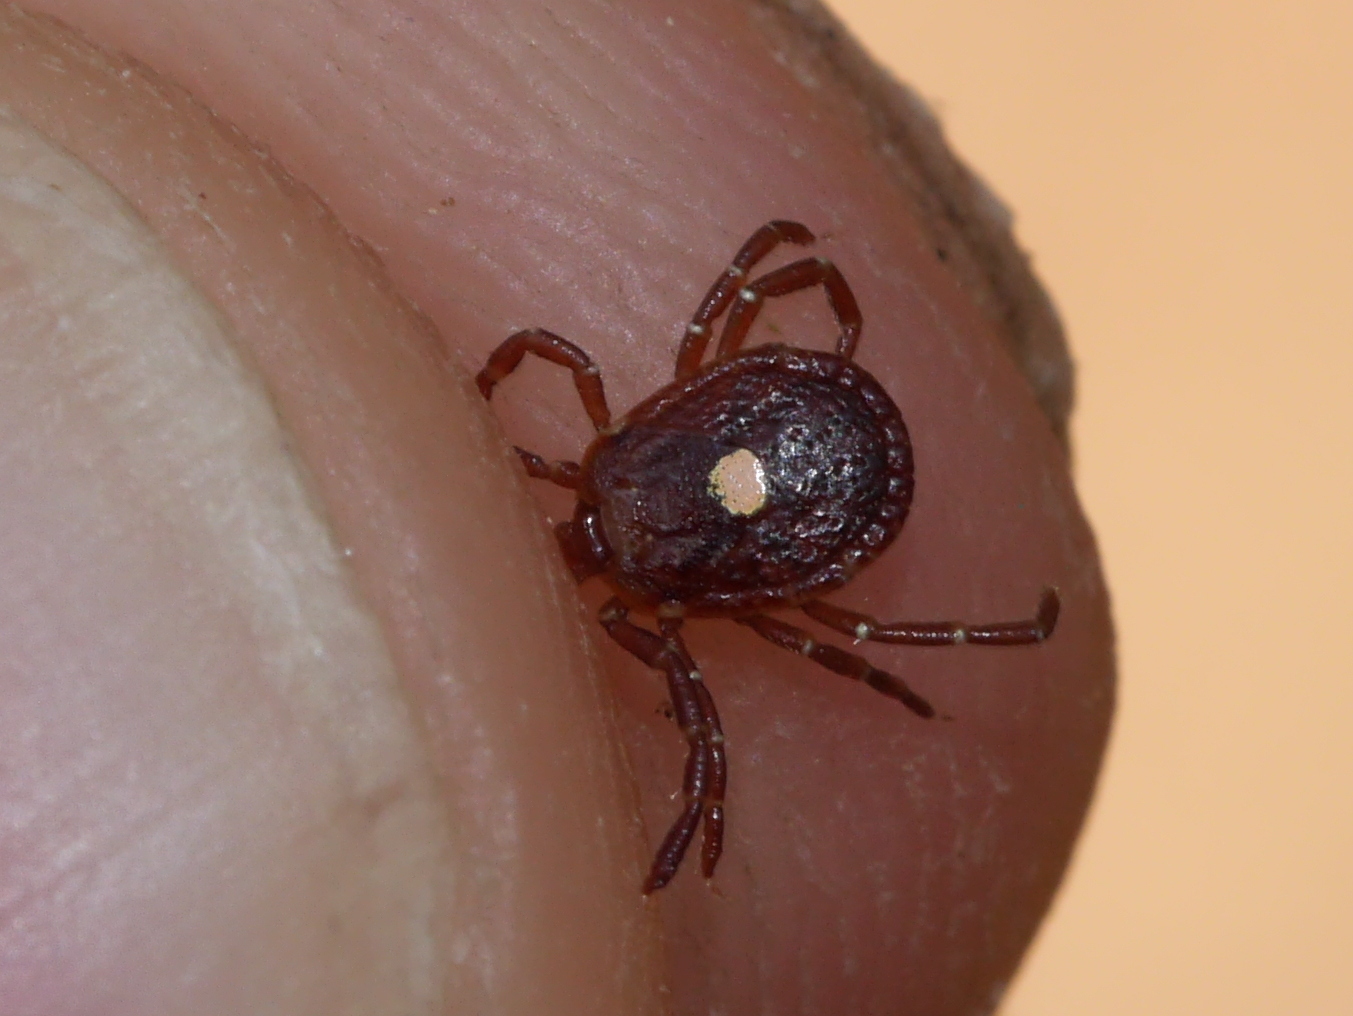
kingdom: Animalia
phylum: Arthropoda
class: Arachnida
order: Ixodida
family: Ixodidae
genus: Amblyomma
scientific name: Amblyomma americanum
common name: Lone star tick
